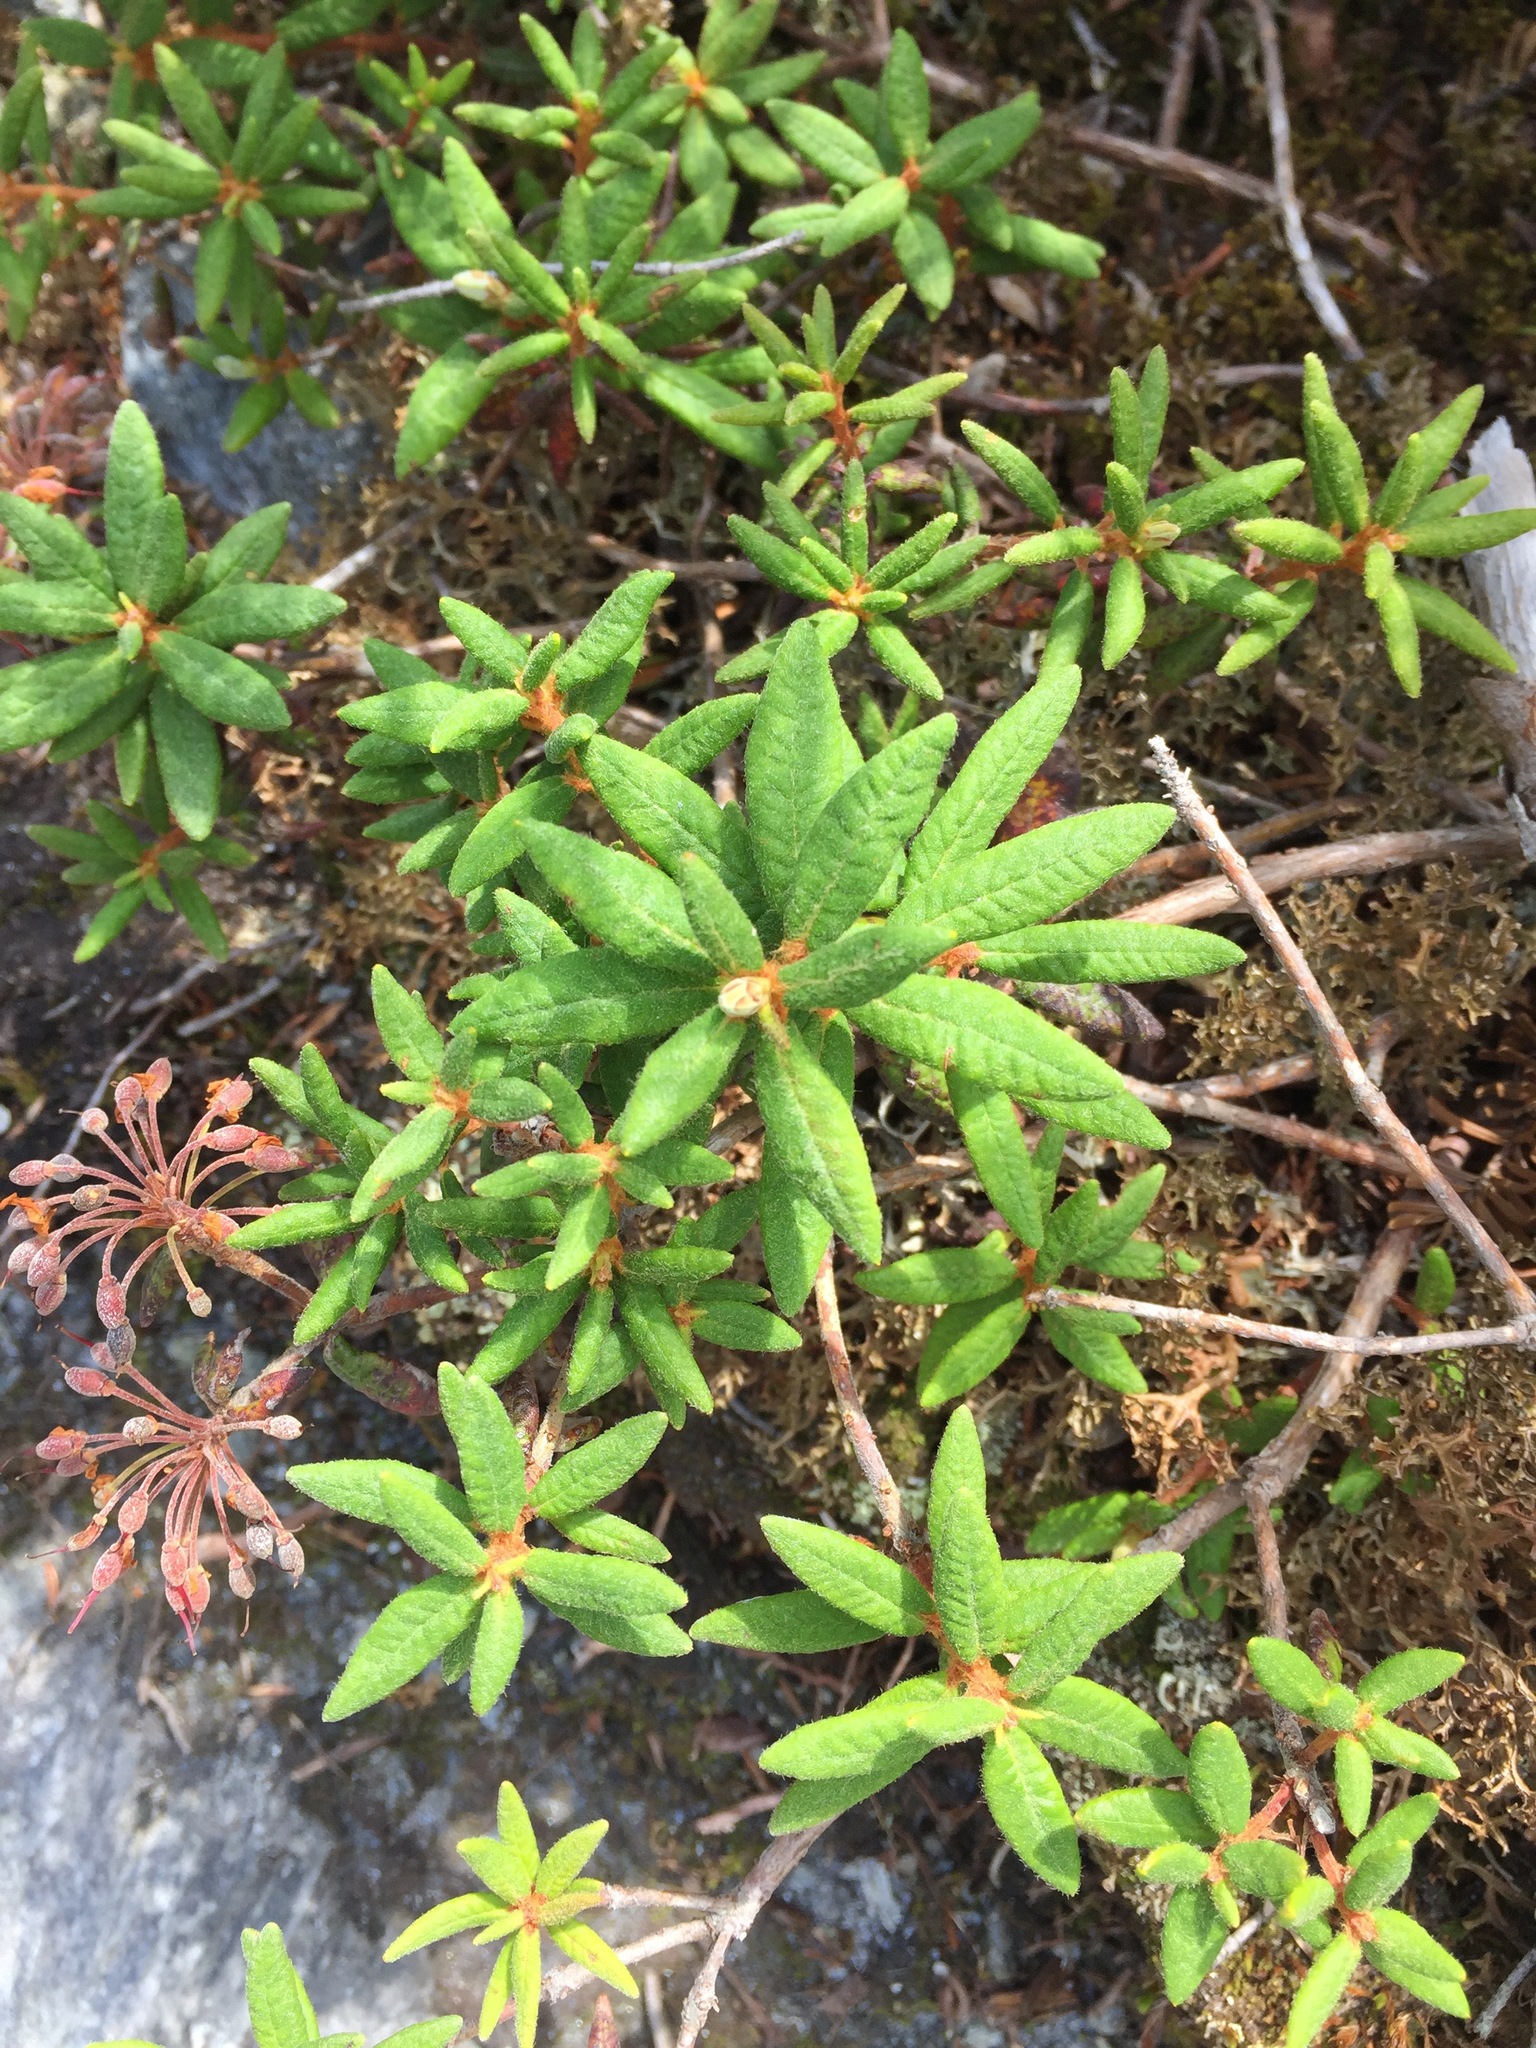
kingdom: Plantae
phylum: Tracheophyta
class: Magnoliopsida
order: Ericales
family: Ericaceae
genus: Rhododendron
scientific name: Rhododendron groenlandicum
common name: Bog labrador tea
